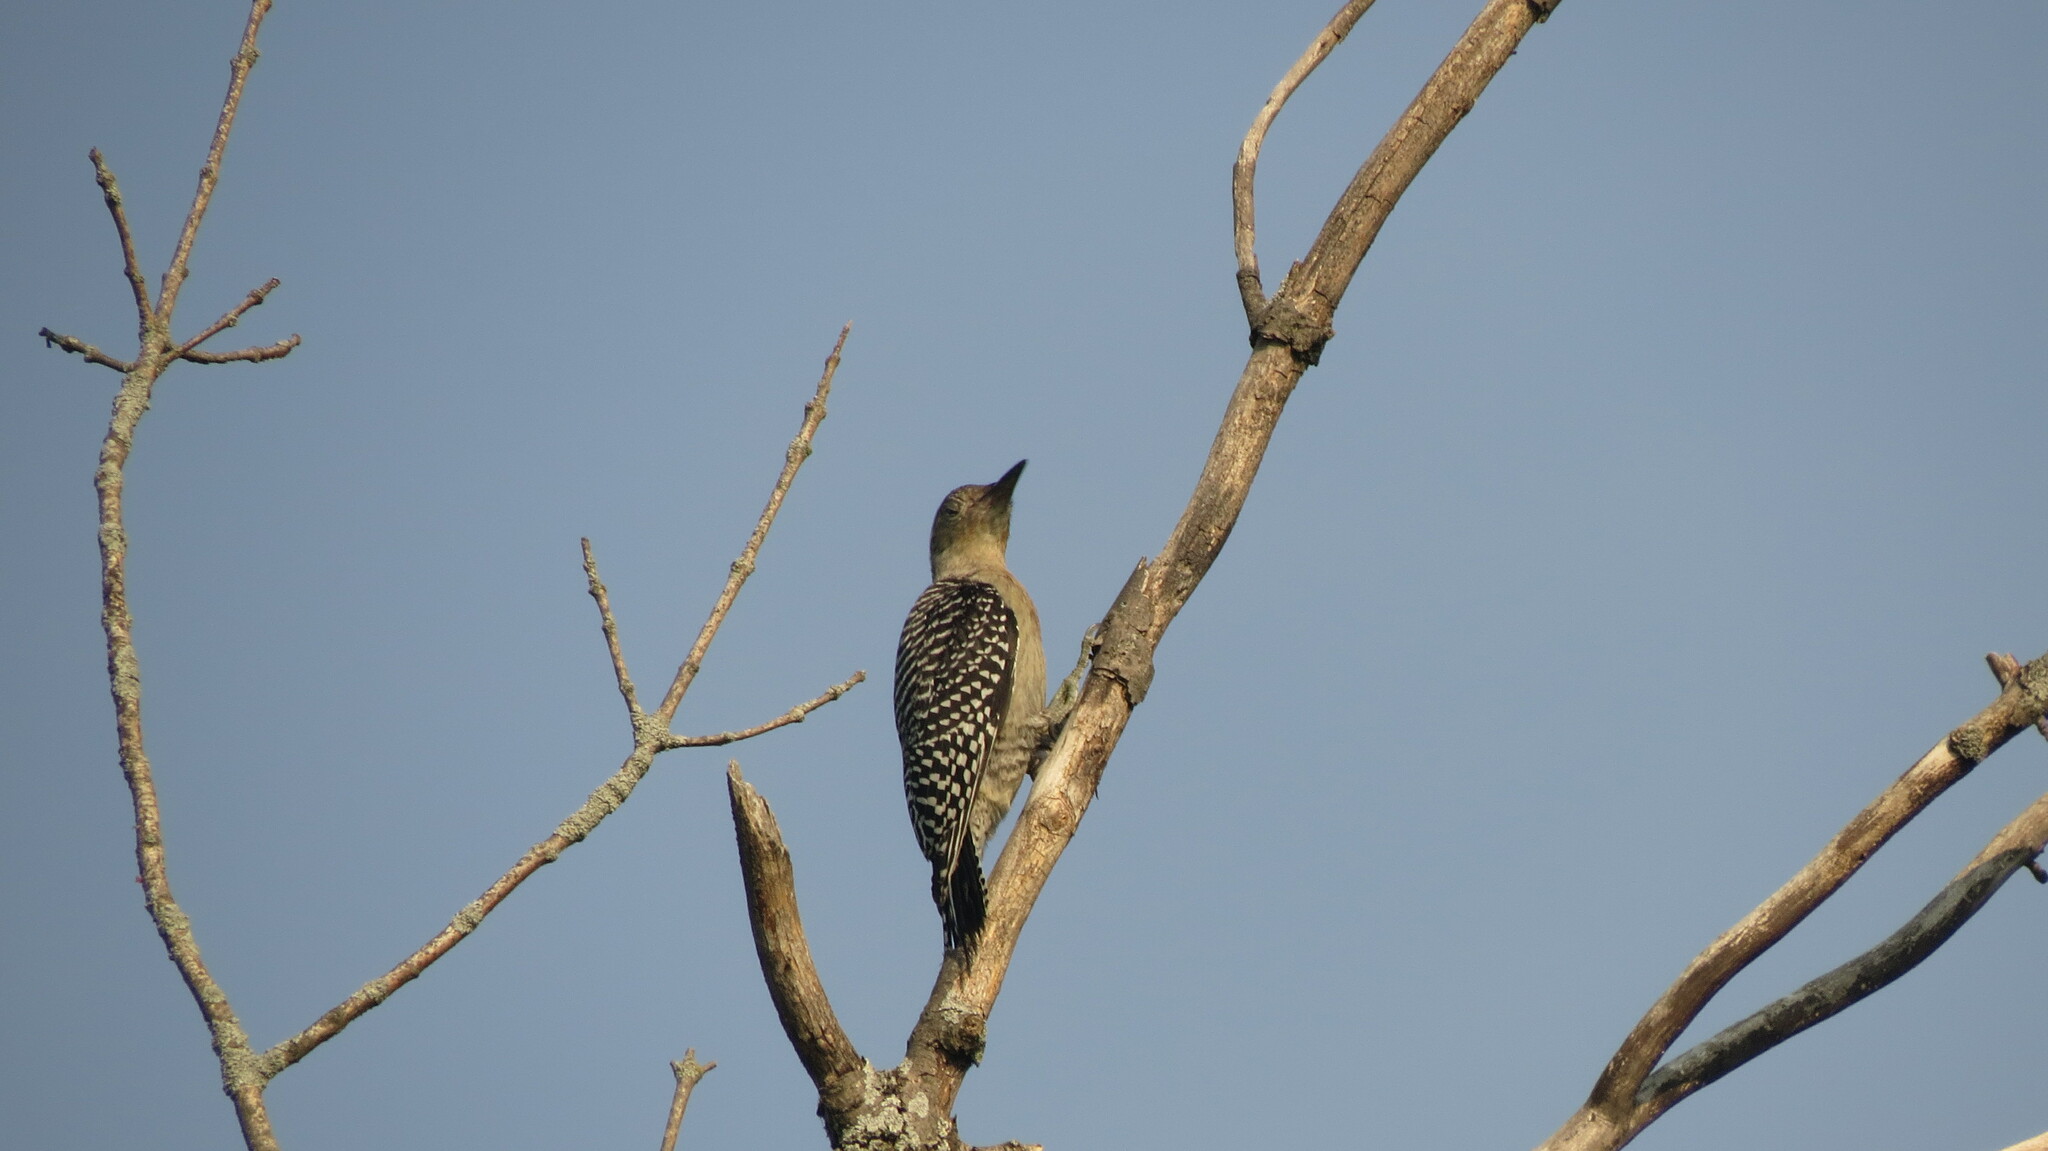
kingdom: Animalia
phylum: Chordata
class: Aves
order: Piciformes
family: Picidae
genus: Melanerpes
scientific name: Melanerpes carolinus
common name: Red-bellied woodpecker
